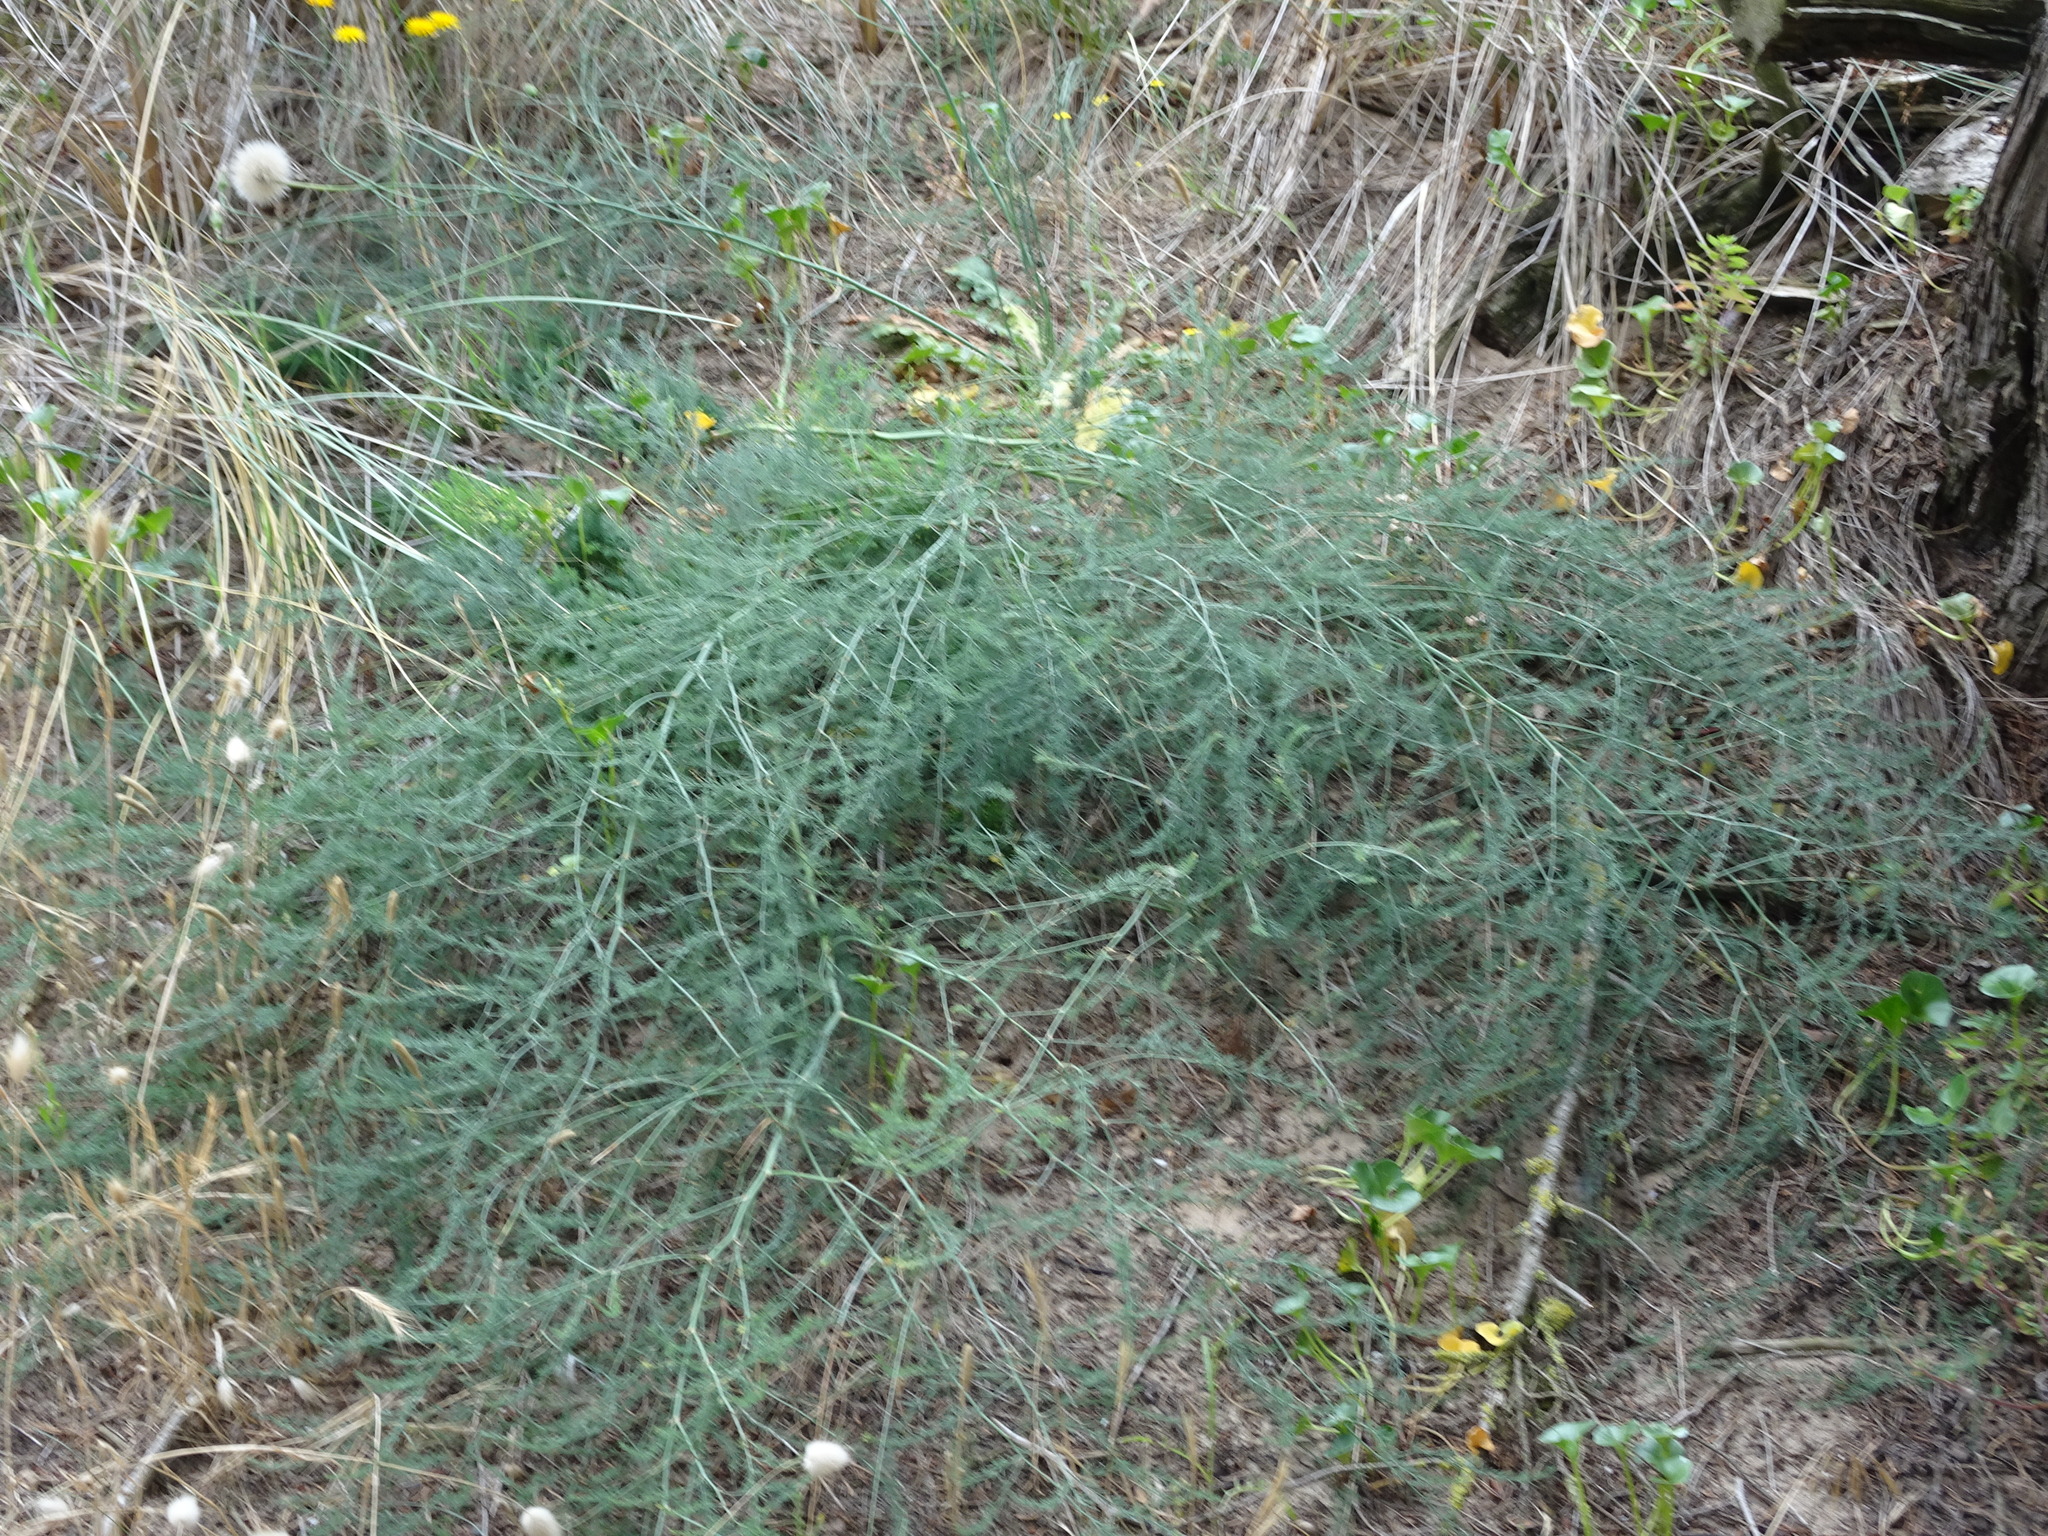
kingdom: Plantae
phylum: Tracheophyta
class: Liliopsida
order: Asparagales
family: Asparagaceae
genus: Asparagus
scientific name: Asparagus prostratus
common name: Wild asparagus
